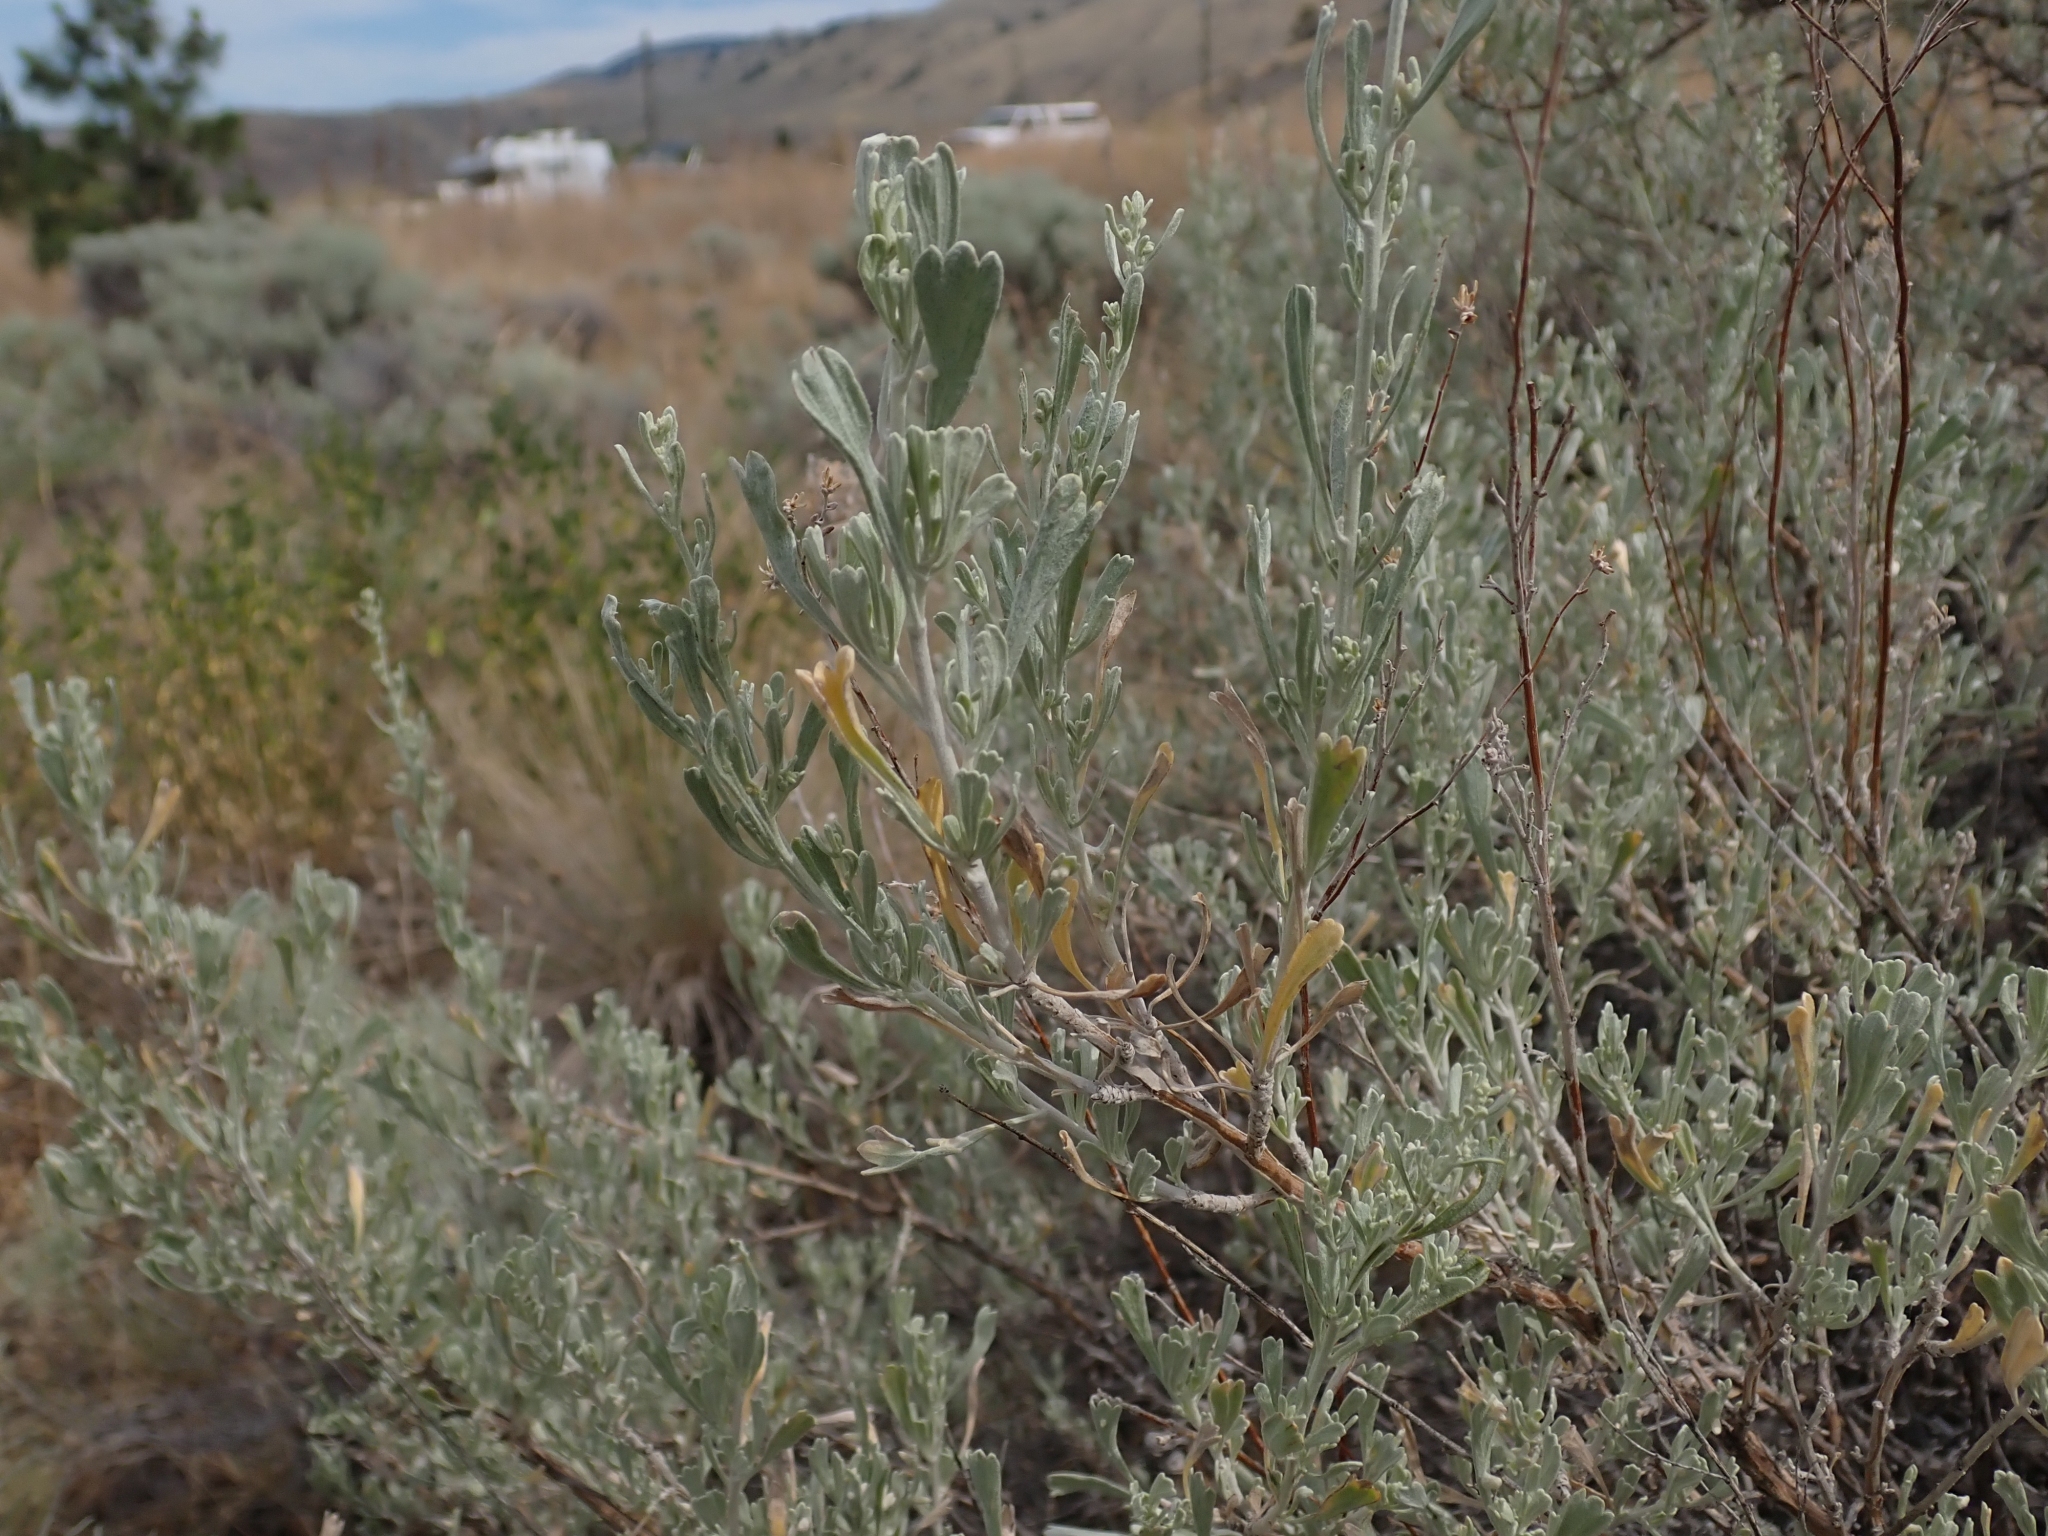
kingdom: Plantae
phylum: Tracheophyta
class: Magnoliopsida
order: Asterales
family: Asteraceae
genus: Artemisia
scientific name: Artemisia tridentata
